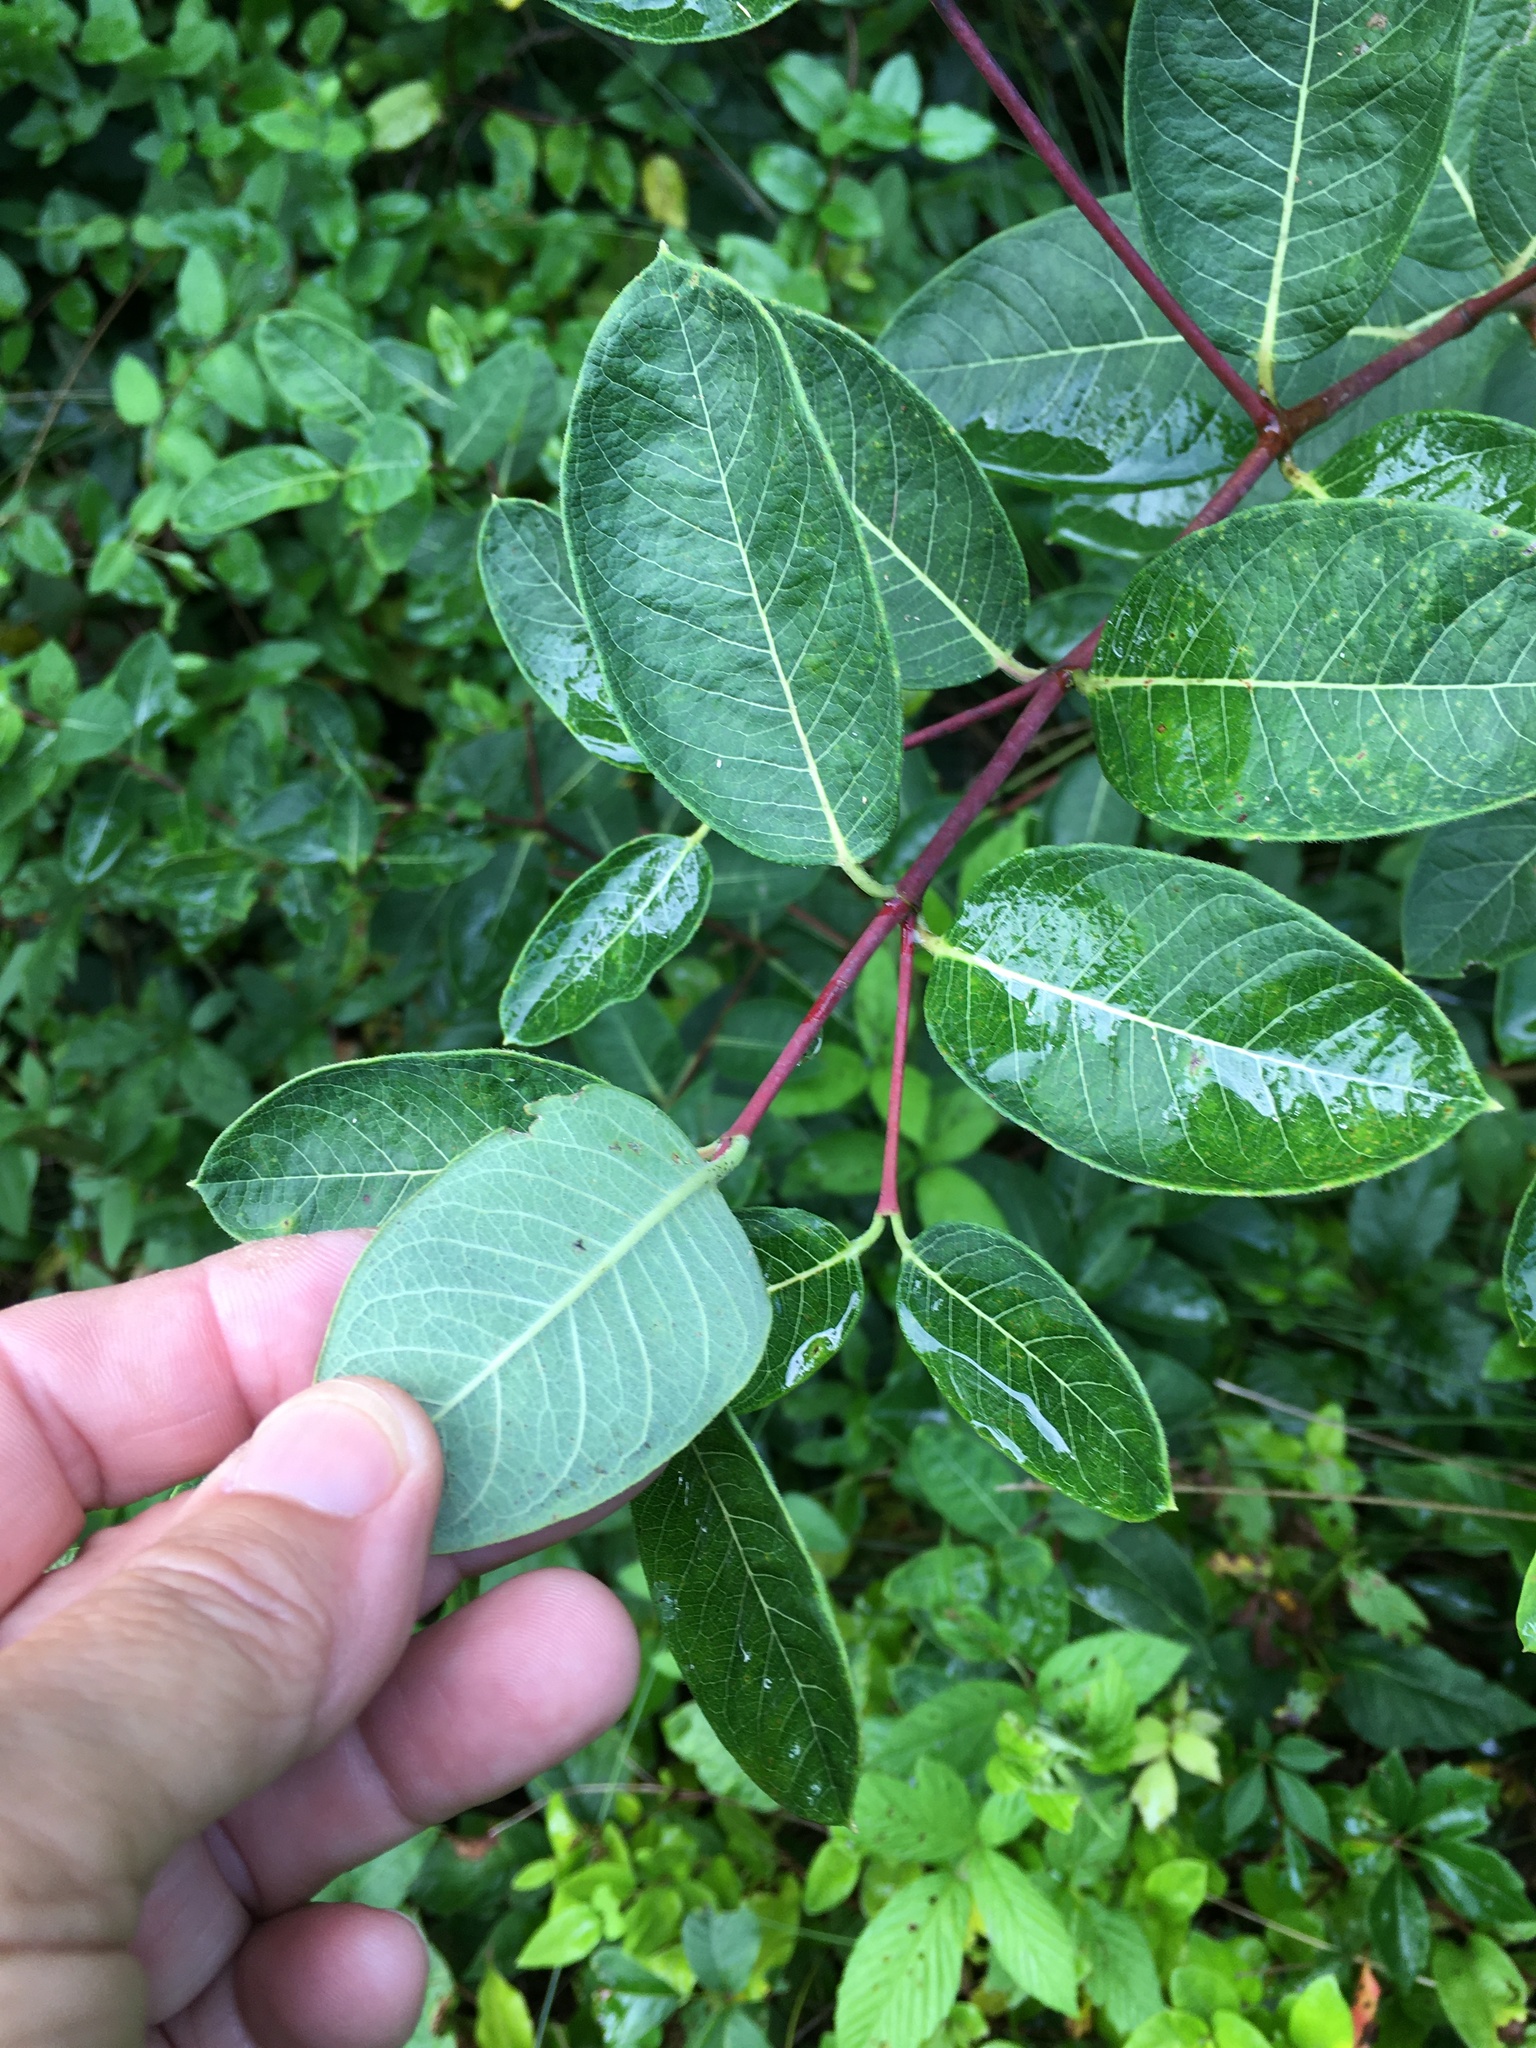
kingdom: Plantae
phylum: Tracheophyta
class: Magnoliopsida
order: Gentianales
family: Apocynaceae
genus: Apocynum
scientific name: Apocynum cannabinum
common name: Hemp dogbane
